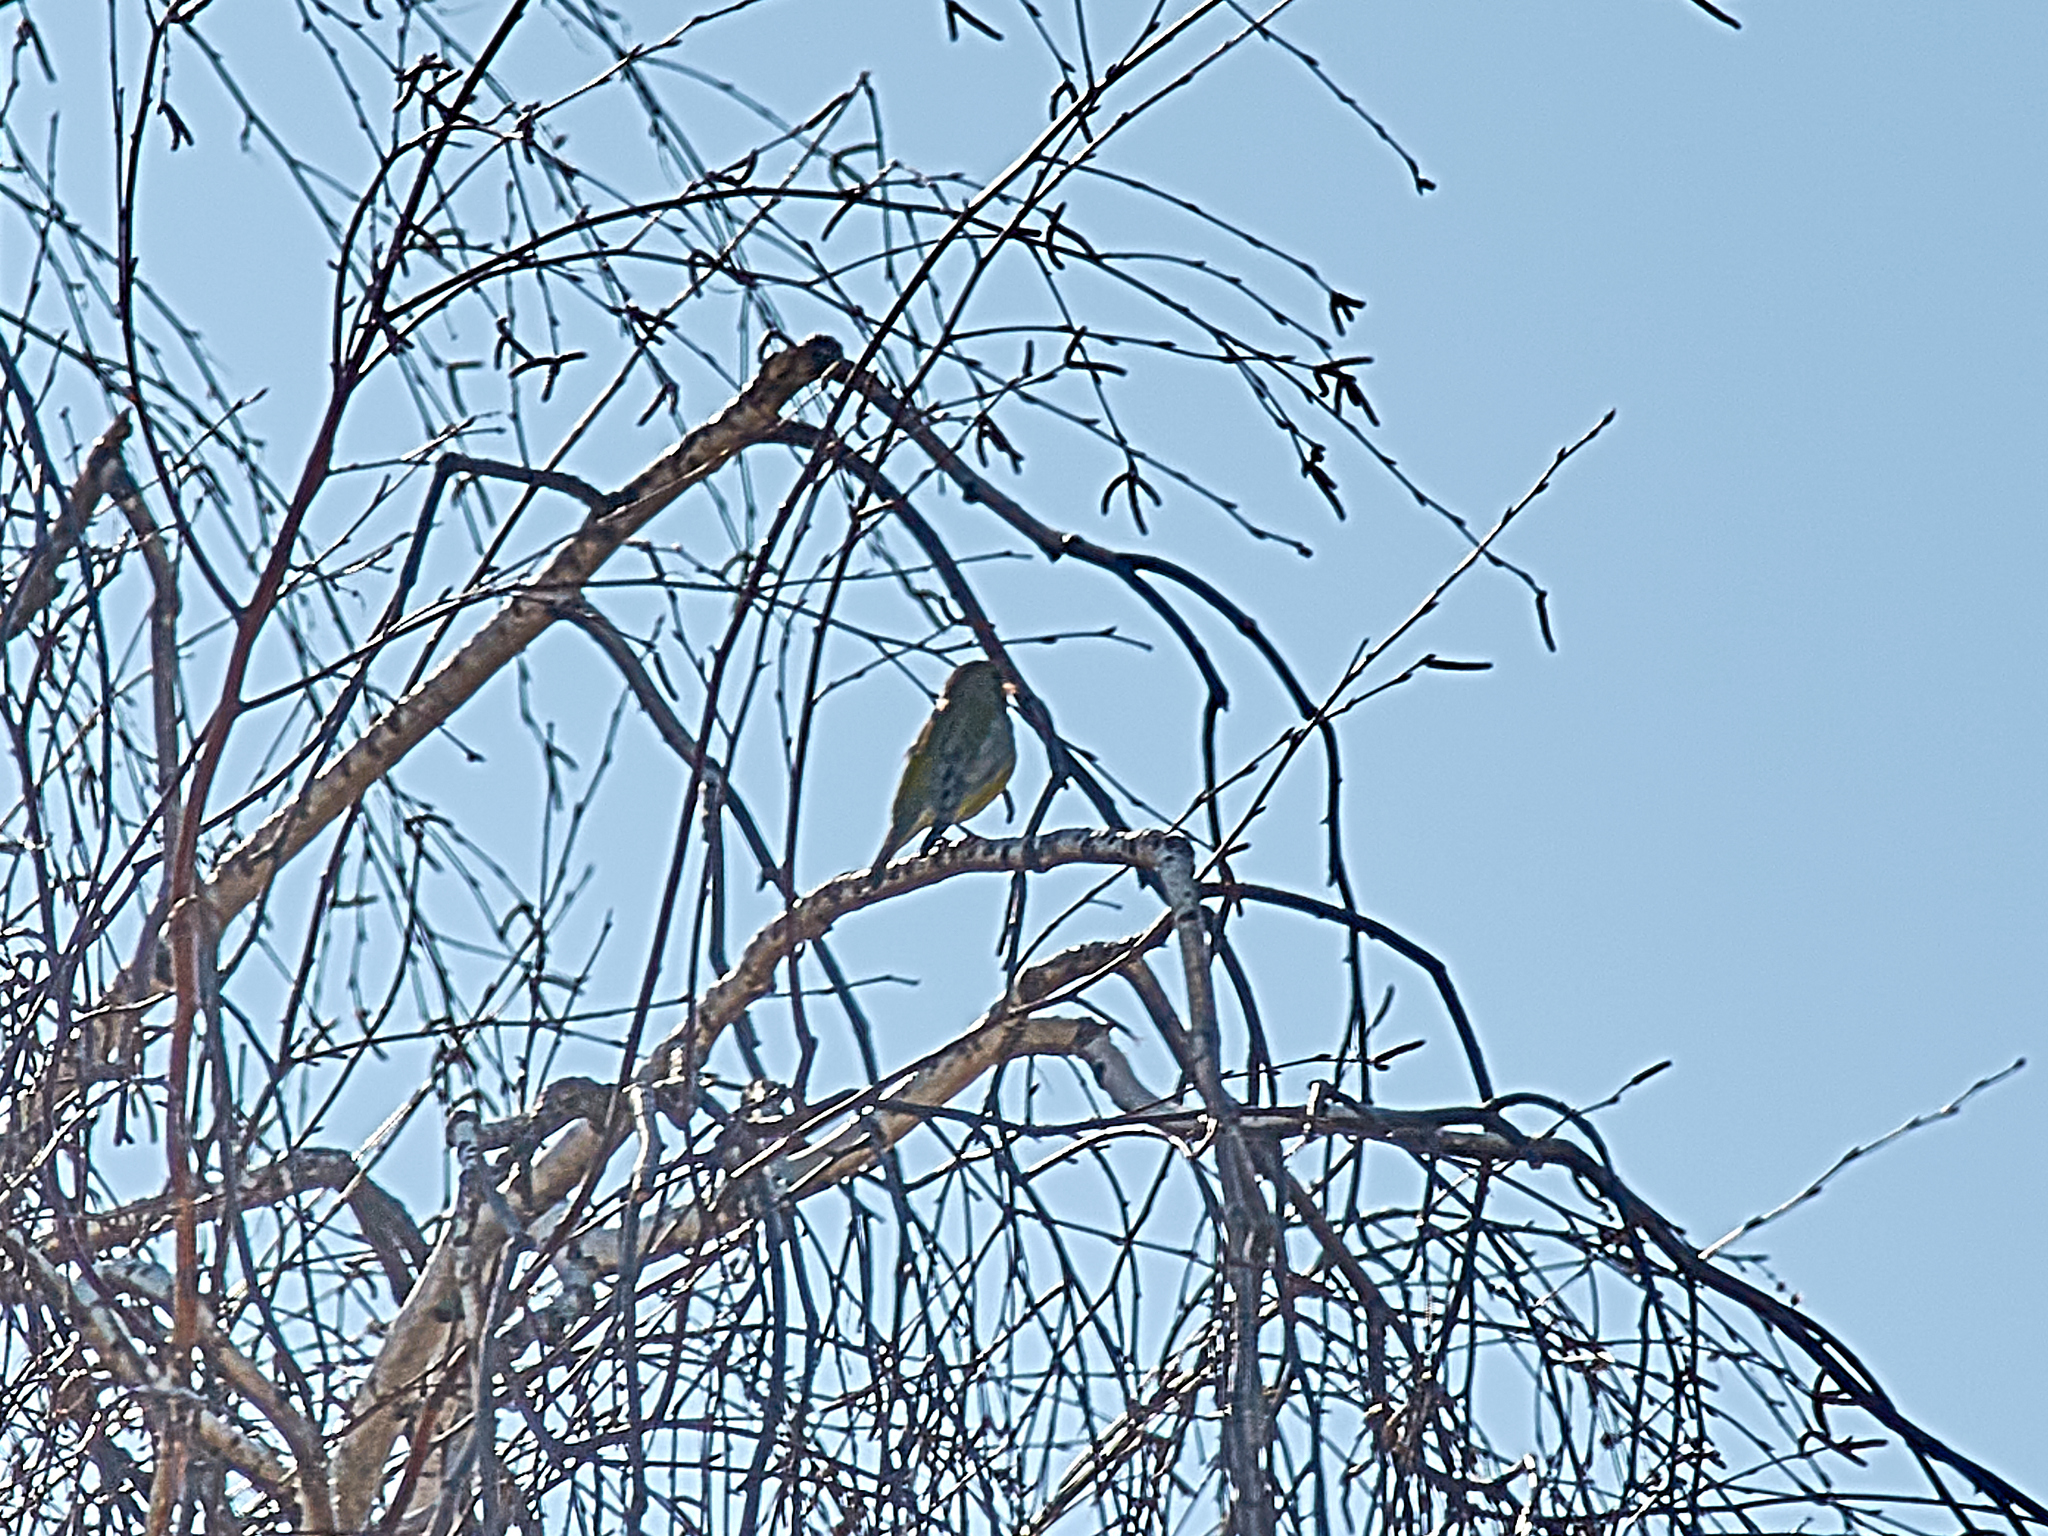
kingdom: Plantae
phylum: Tracheophyta
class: Liliopsida
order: Poales
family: Poaceae
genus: Chloris
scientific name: Chloris chloris
